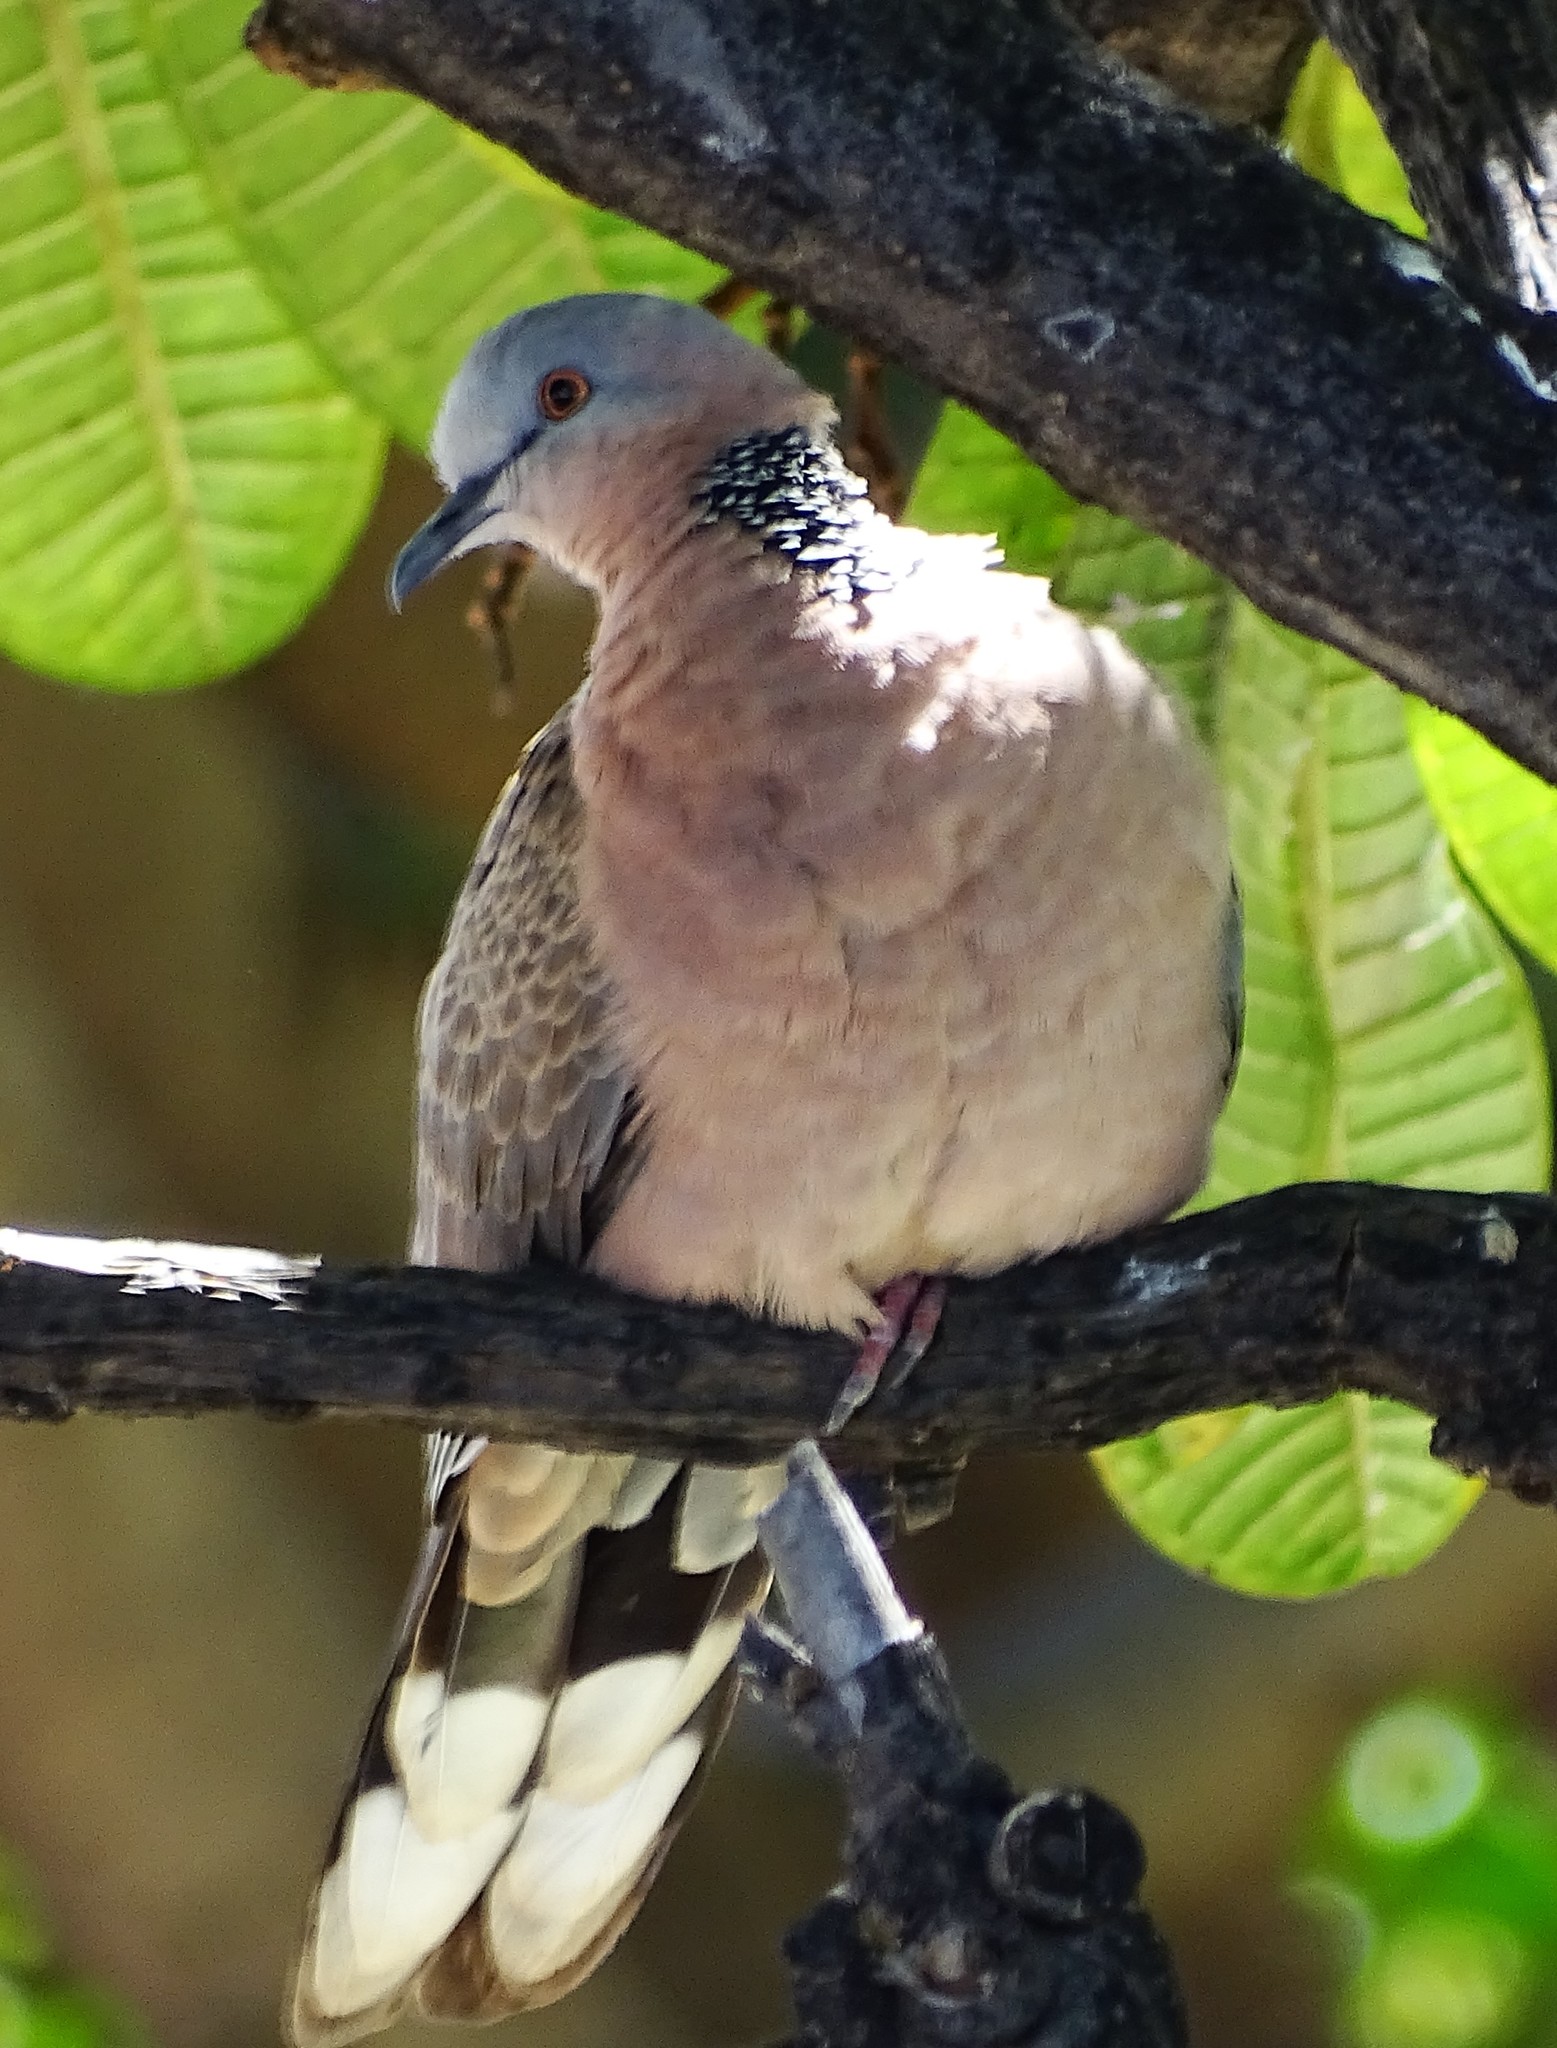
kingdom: Animalia
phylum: Chordata
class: Aves
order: Columbiformes
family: Columbidae
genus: Spilopelia
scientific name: Spilopelia chinensis
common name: Spotted dove
